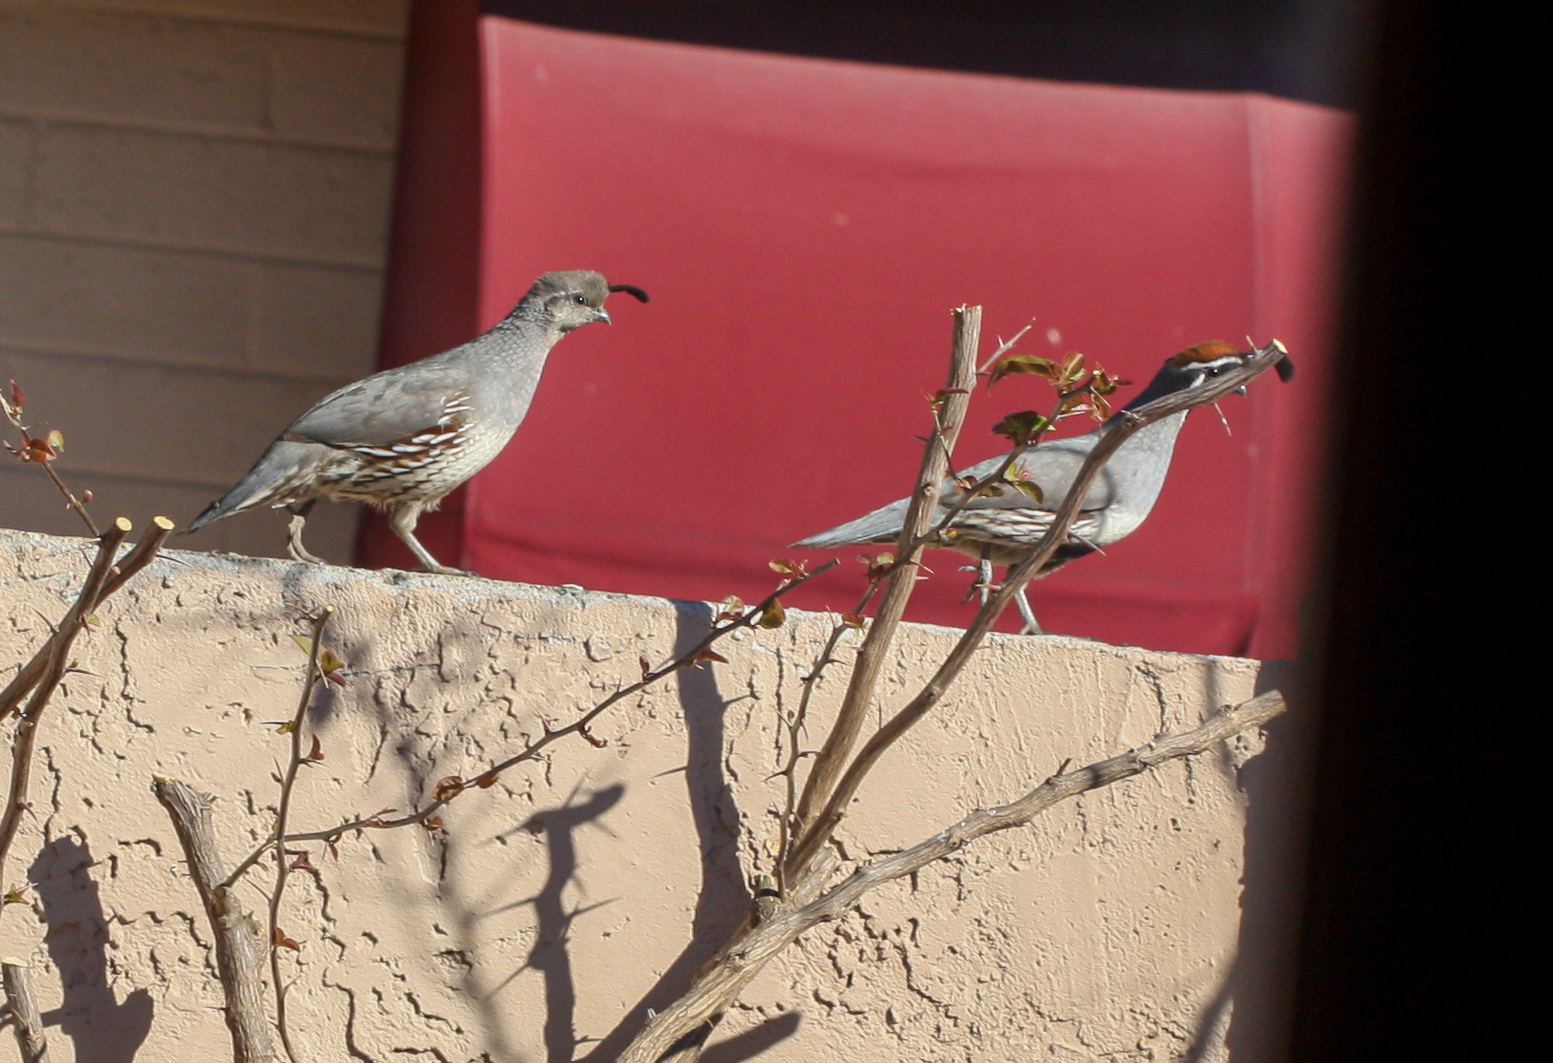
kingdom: Animalia
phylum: Chordata
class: Aves
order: Galliformes
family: Odontophoridae
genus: Callipepla
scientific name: Callipepla gambelii
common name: Gambel's quail
